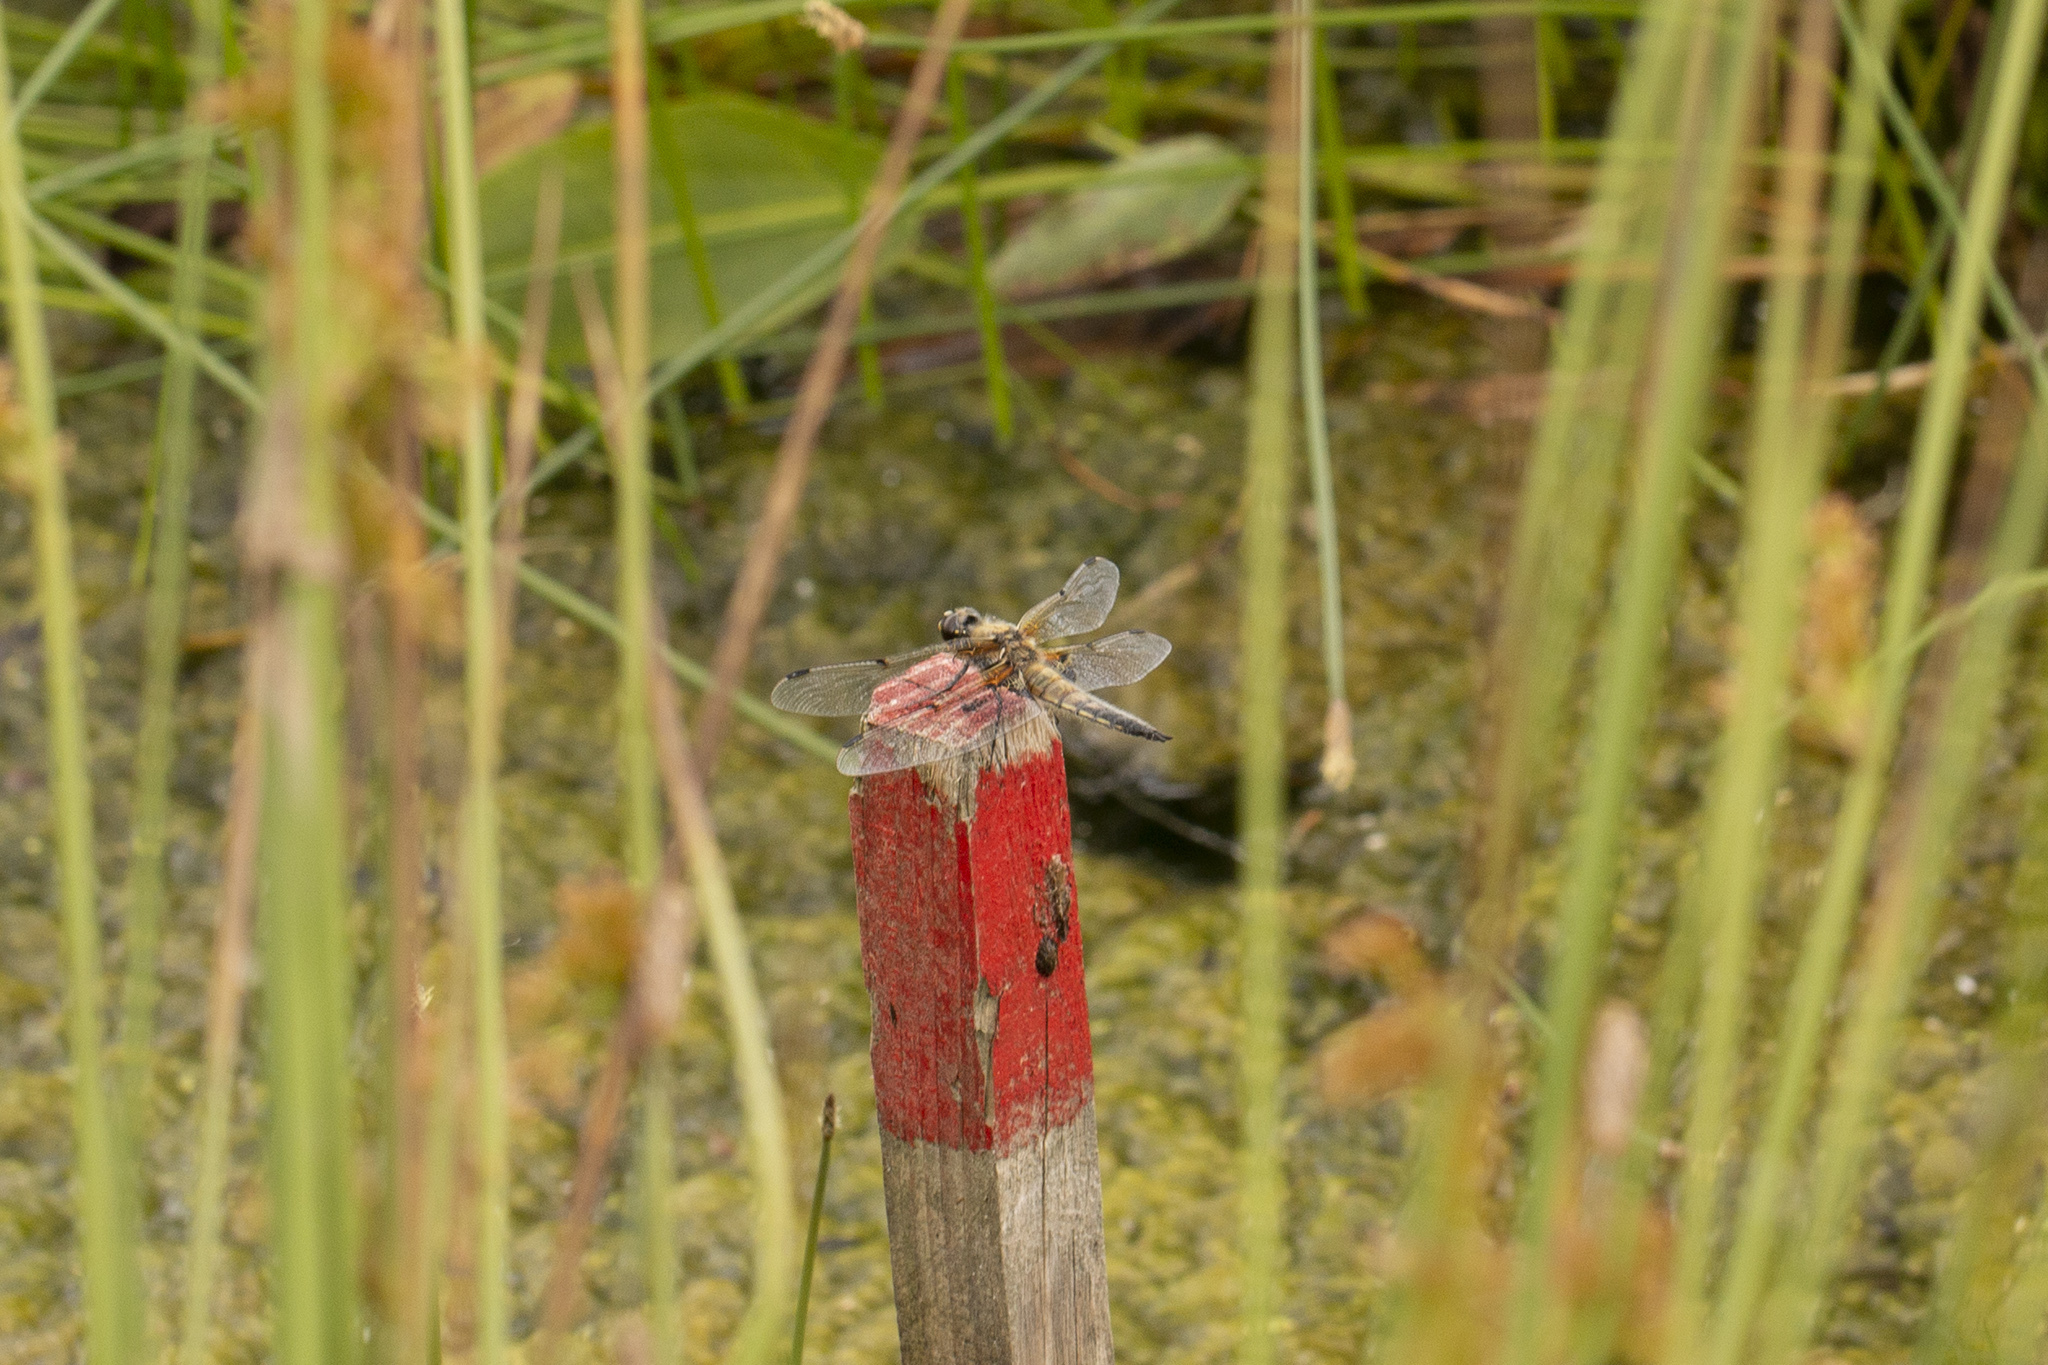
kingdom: Animalia
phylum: Arthropoda
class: Insecta
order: Odonata
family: Libellulidae
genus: Libellula
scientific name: Libellula quadrimaculata
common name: Four-spotted chaser
